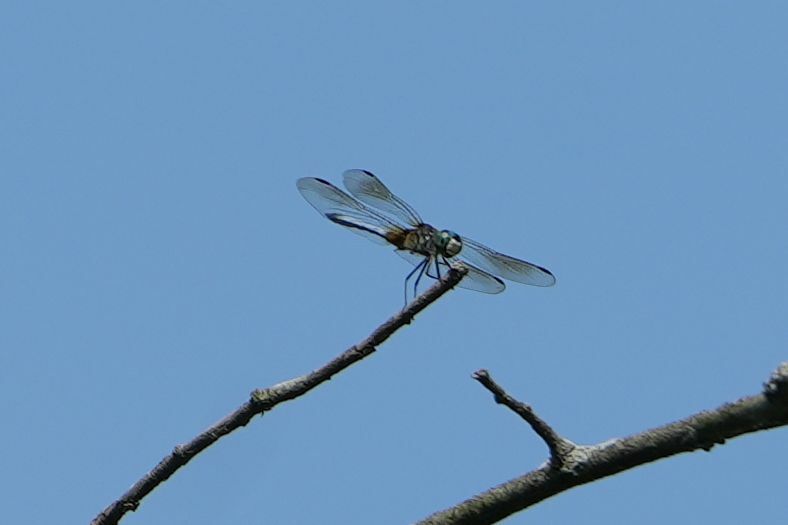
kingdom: Animalia
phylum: Arthropoda
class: Insecta
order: Odonata
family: Libellulidae
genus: Pachydiplax
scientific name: Pachydiplax longipennis
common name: Blue dasher
